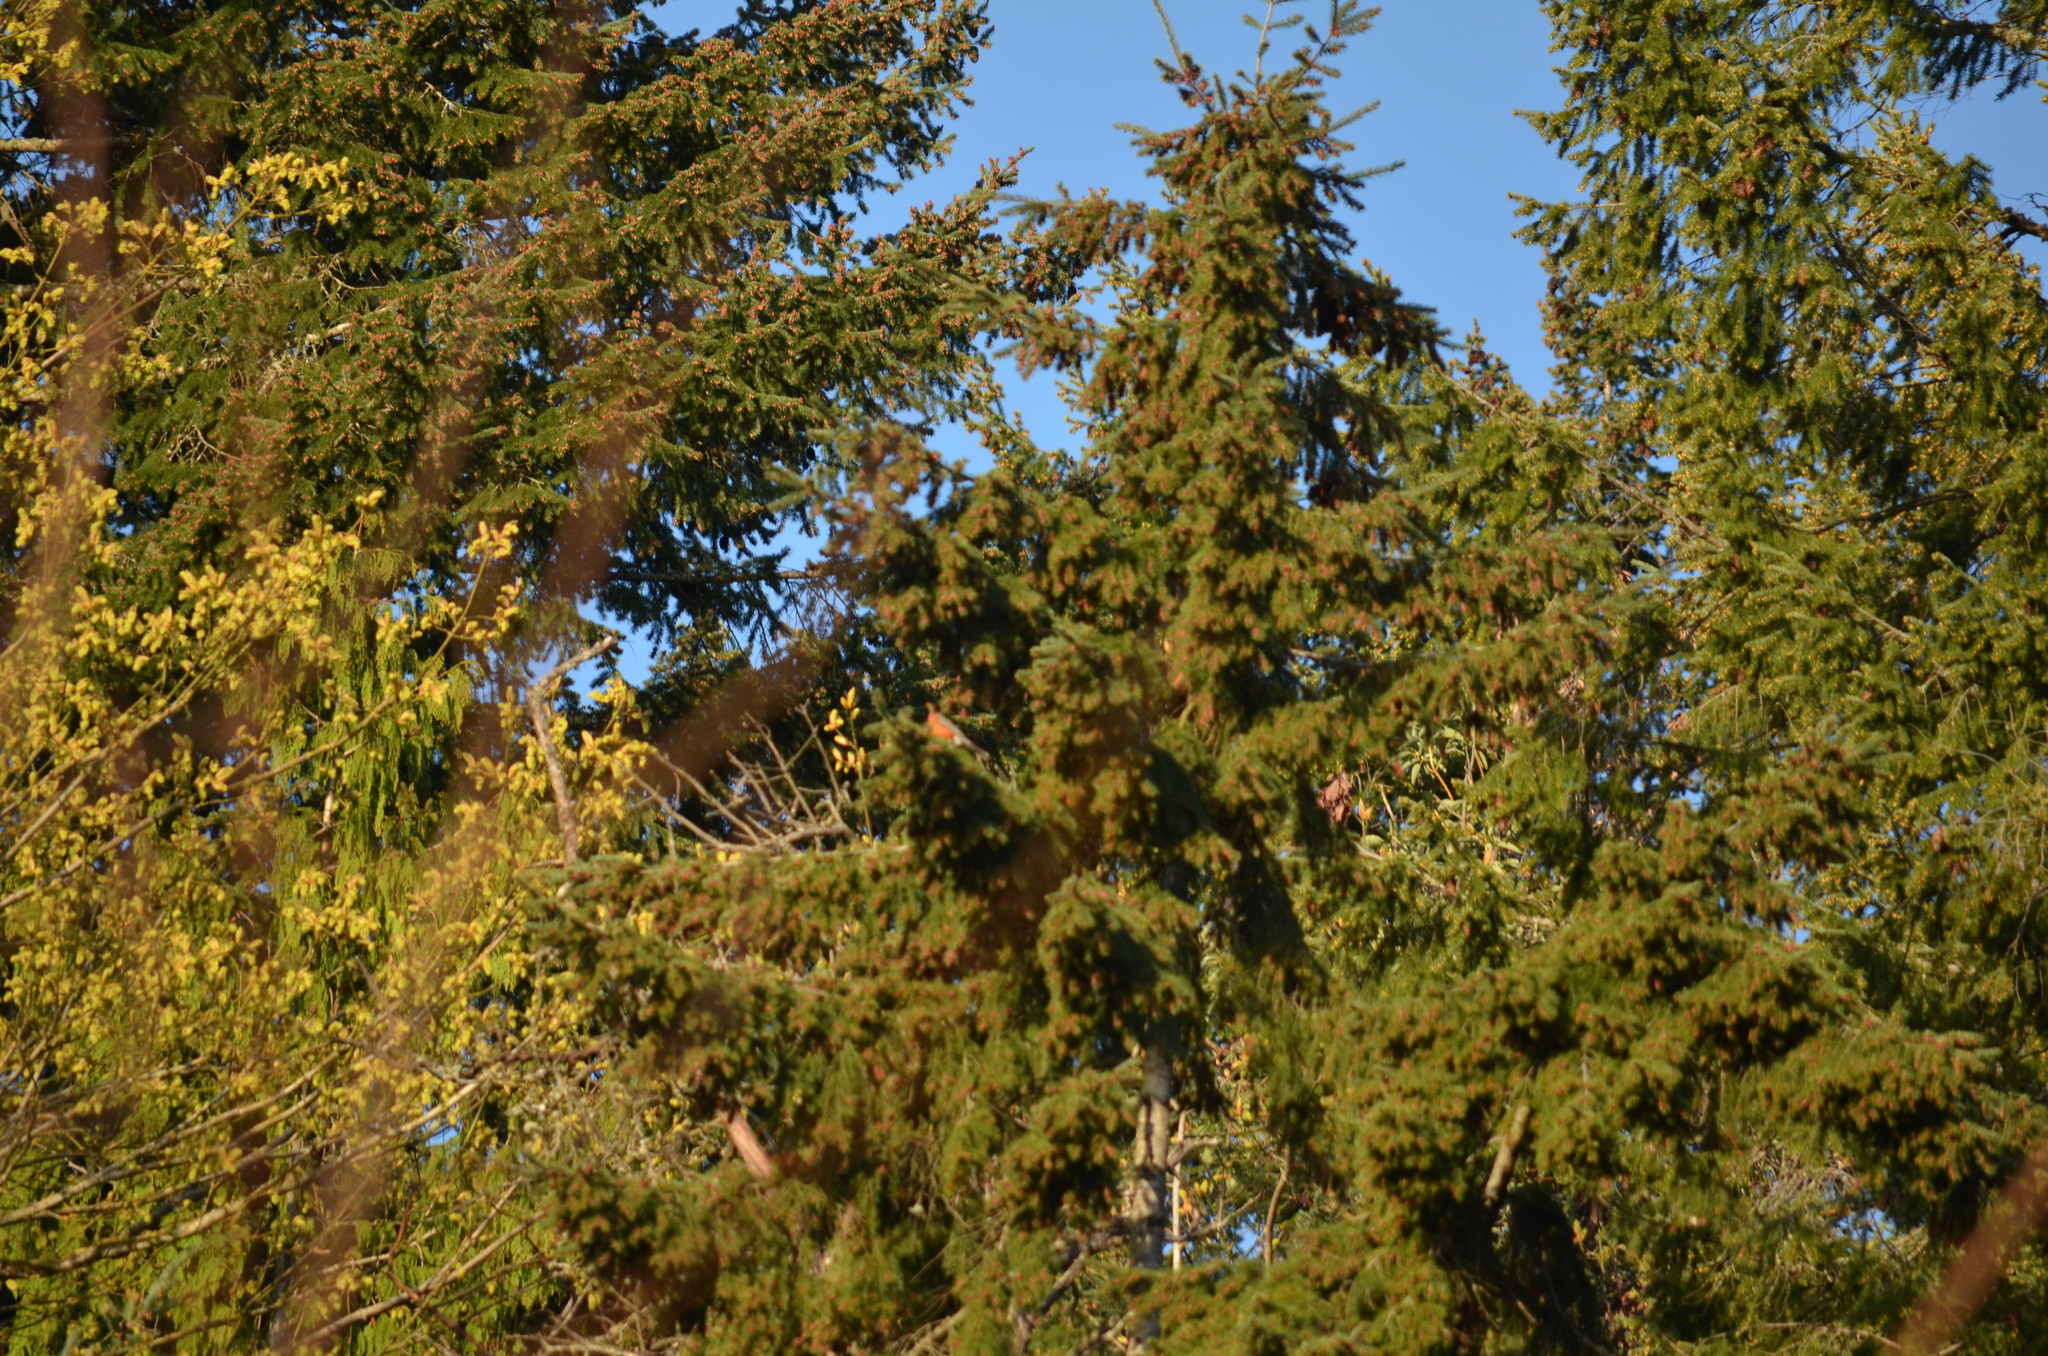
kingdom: Animalia
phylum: Chordata
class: Aves
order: Passeriformes
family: Turdidae
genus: Turdus
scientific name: Turdus migratorius
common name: American robin
